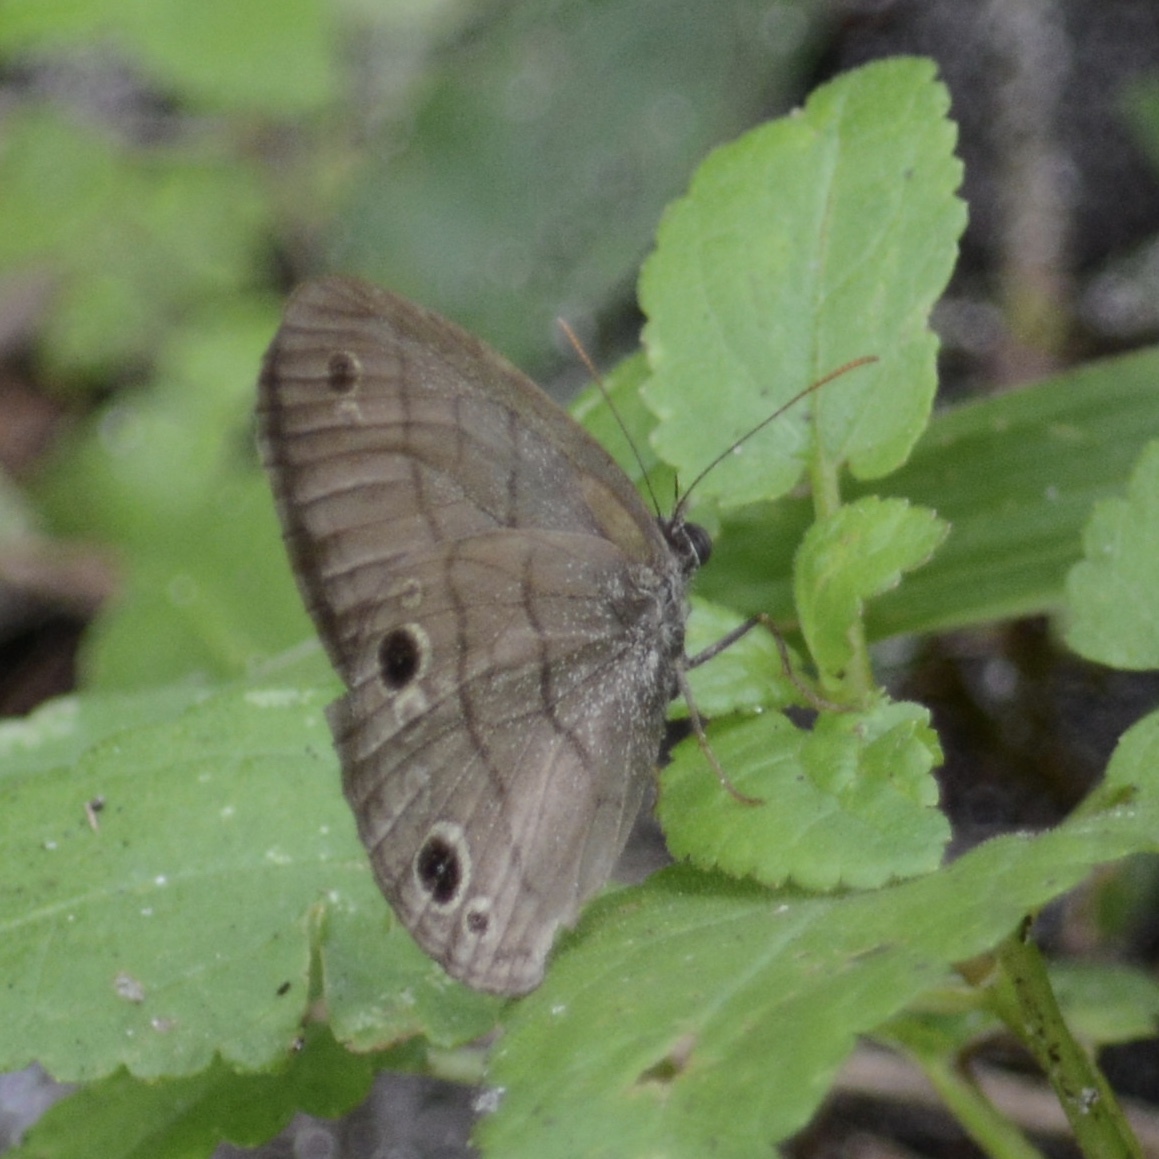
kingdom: Animalia
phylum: Arthropoda
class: Insecta
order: Lepidoptera
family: Nymphalidae
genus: Hermeuptychia
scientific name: Hermeuptychia hermes
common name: Hermes satyr
